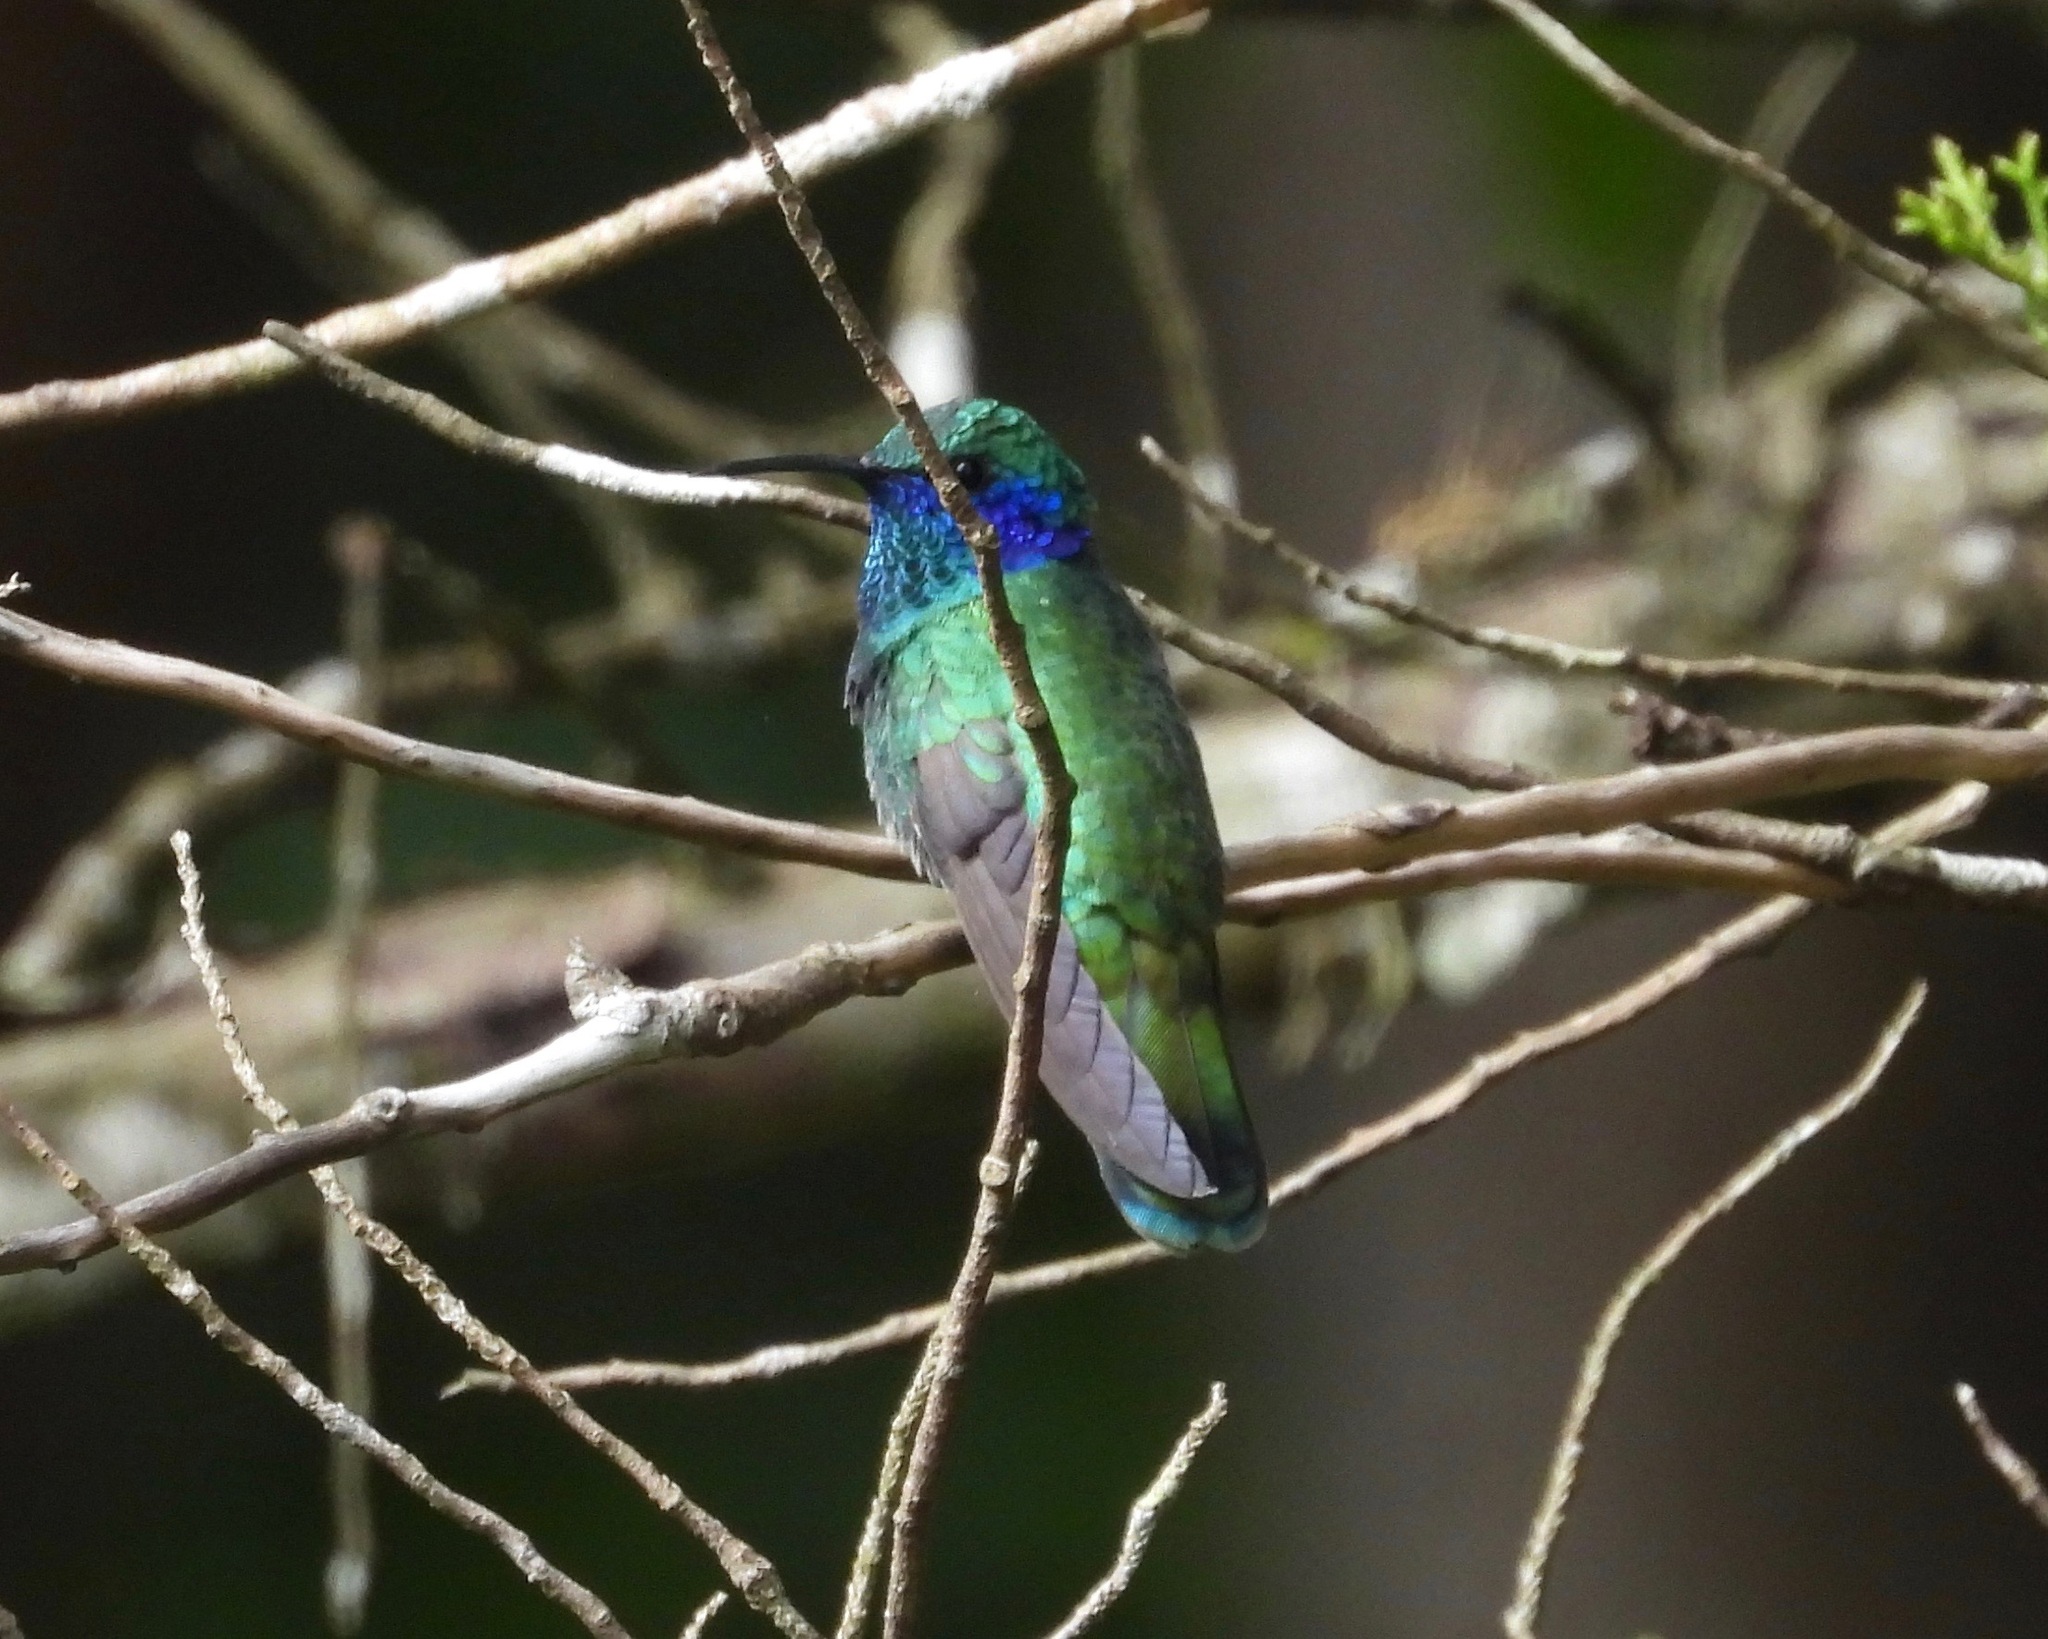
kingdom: Animalia
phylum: Chordata
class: Aves
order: Apodiformes
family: Trochilidae
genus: Colibri
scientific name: Colibri thalassinus
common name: Green violetear
